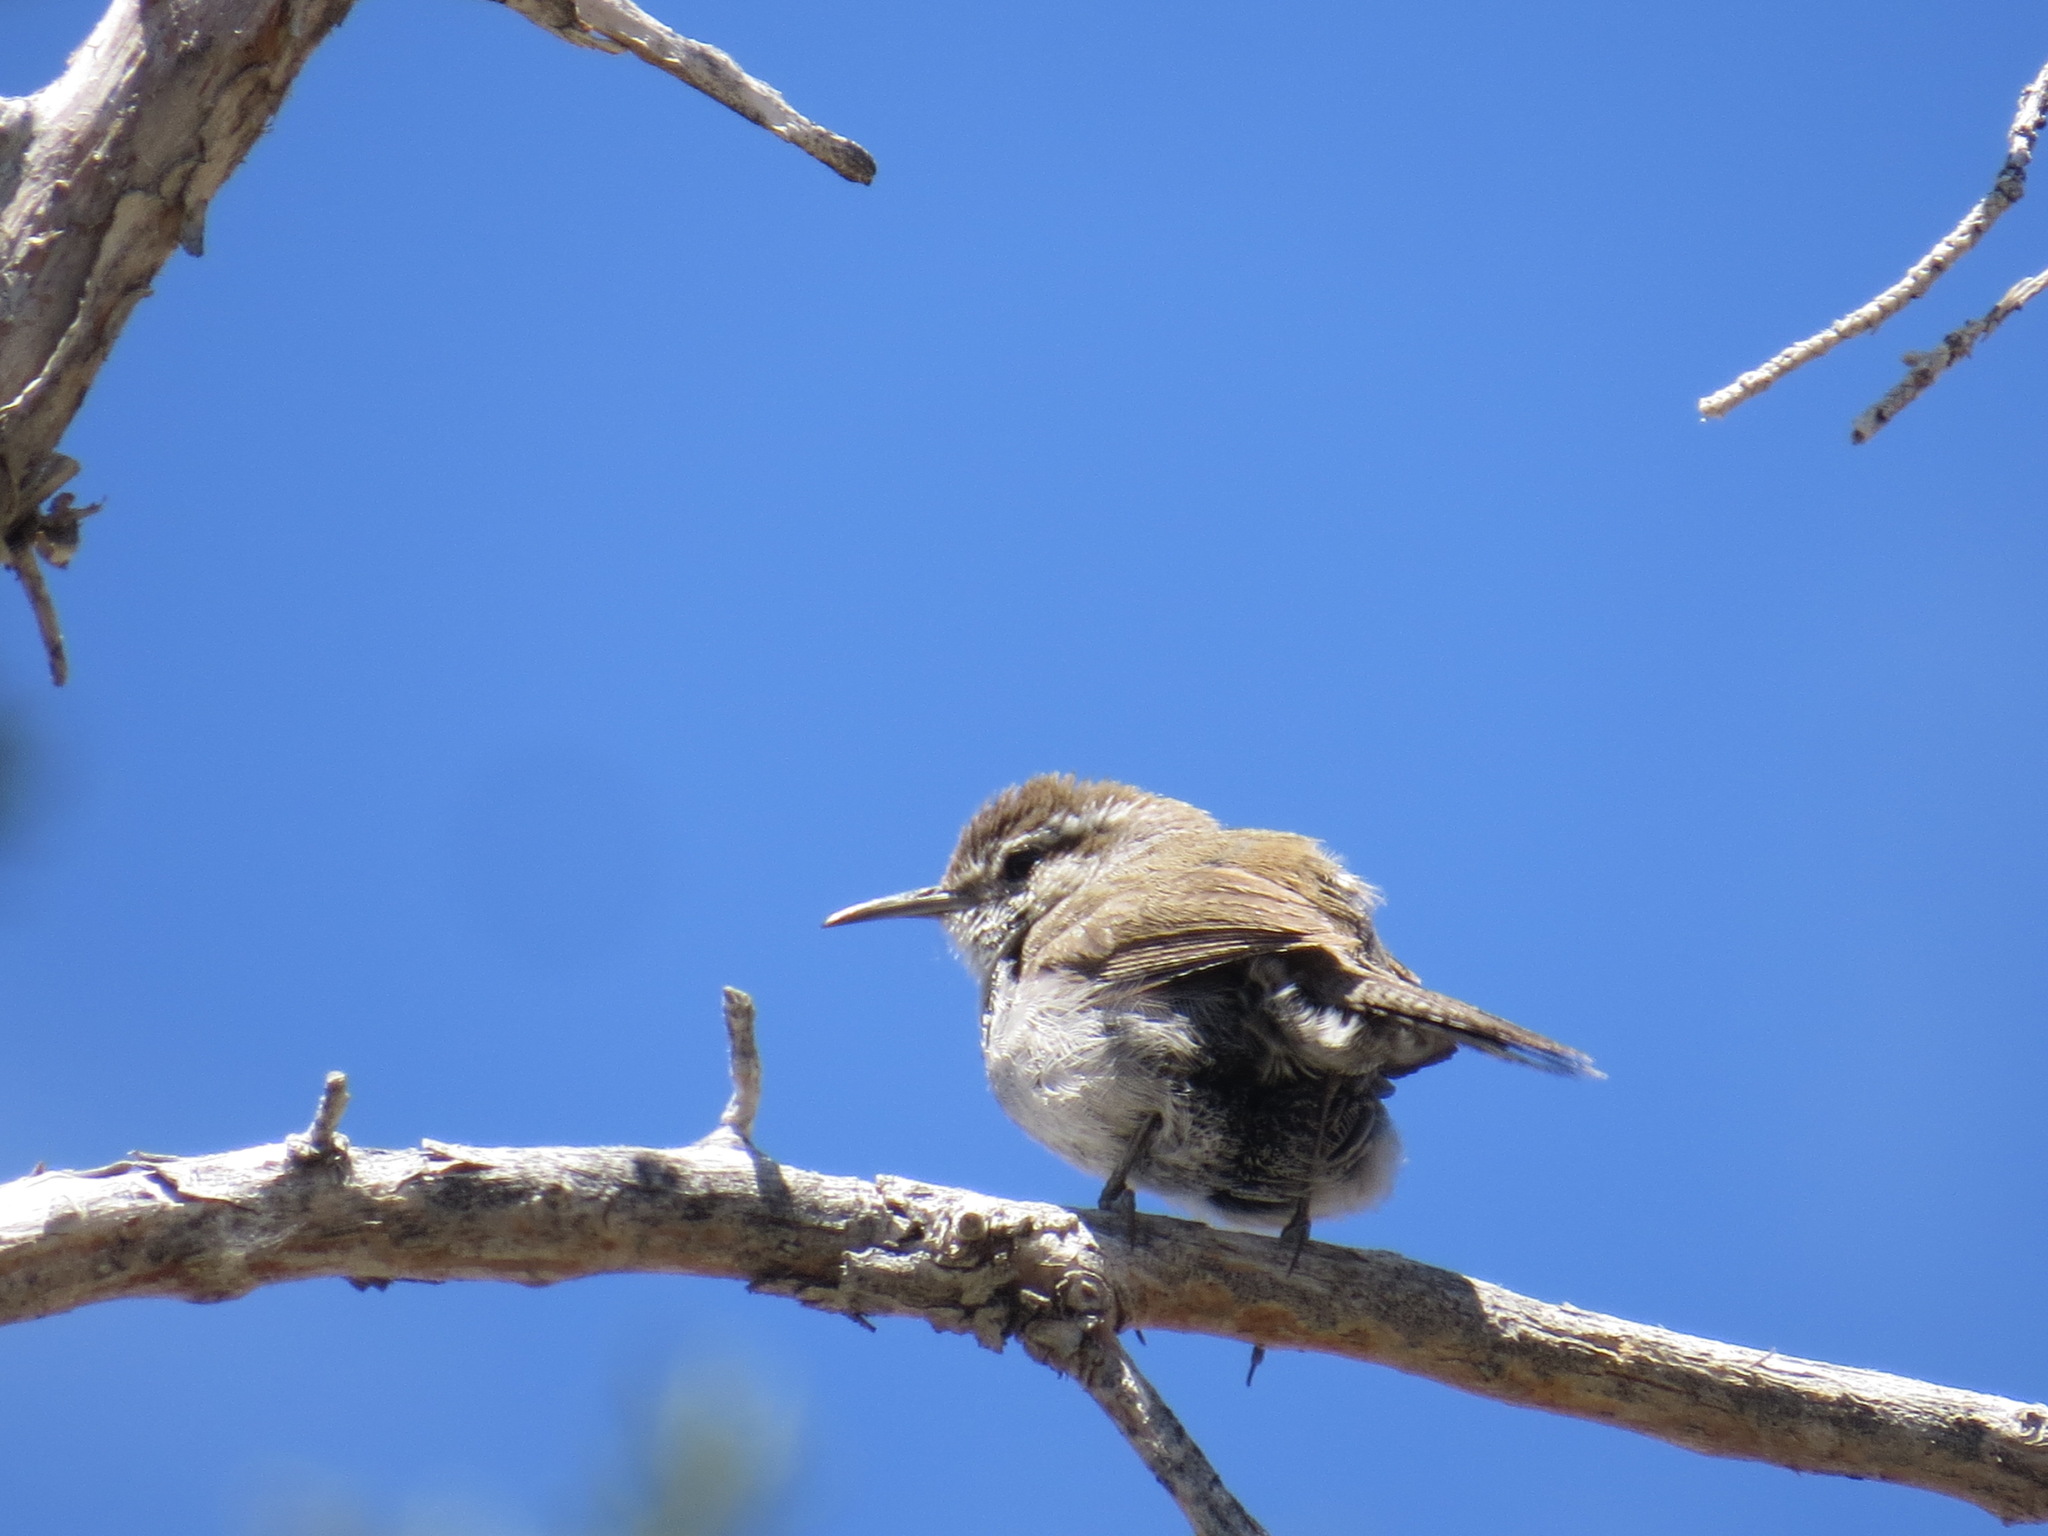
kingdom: Animalia
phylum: Chordata
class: Aves
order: Passeriformes
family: Troglodytidae
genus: Thryomanes
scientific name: Thryomanes bewickii
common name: Bewick's wren
